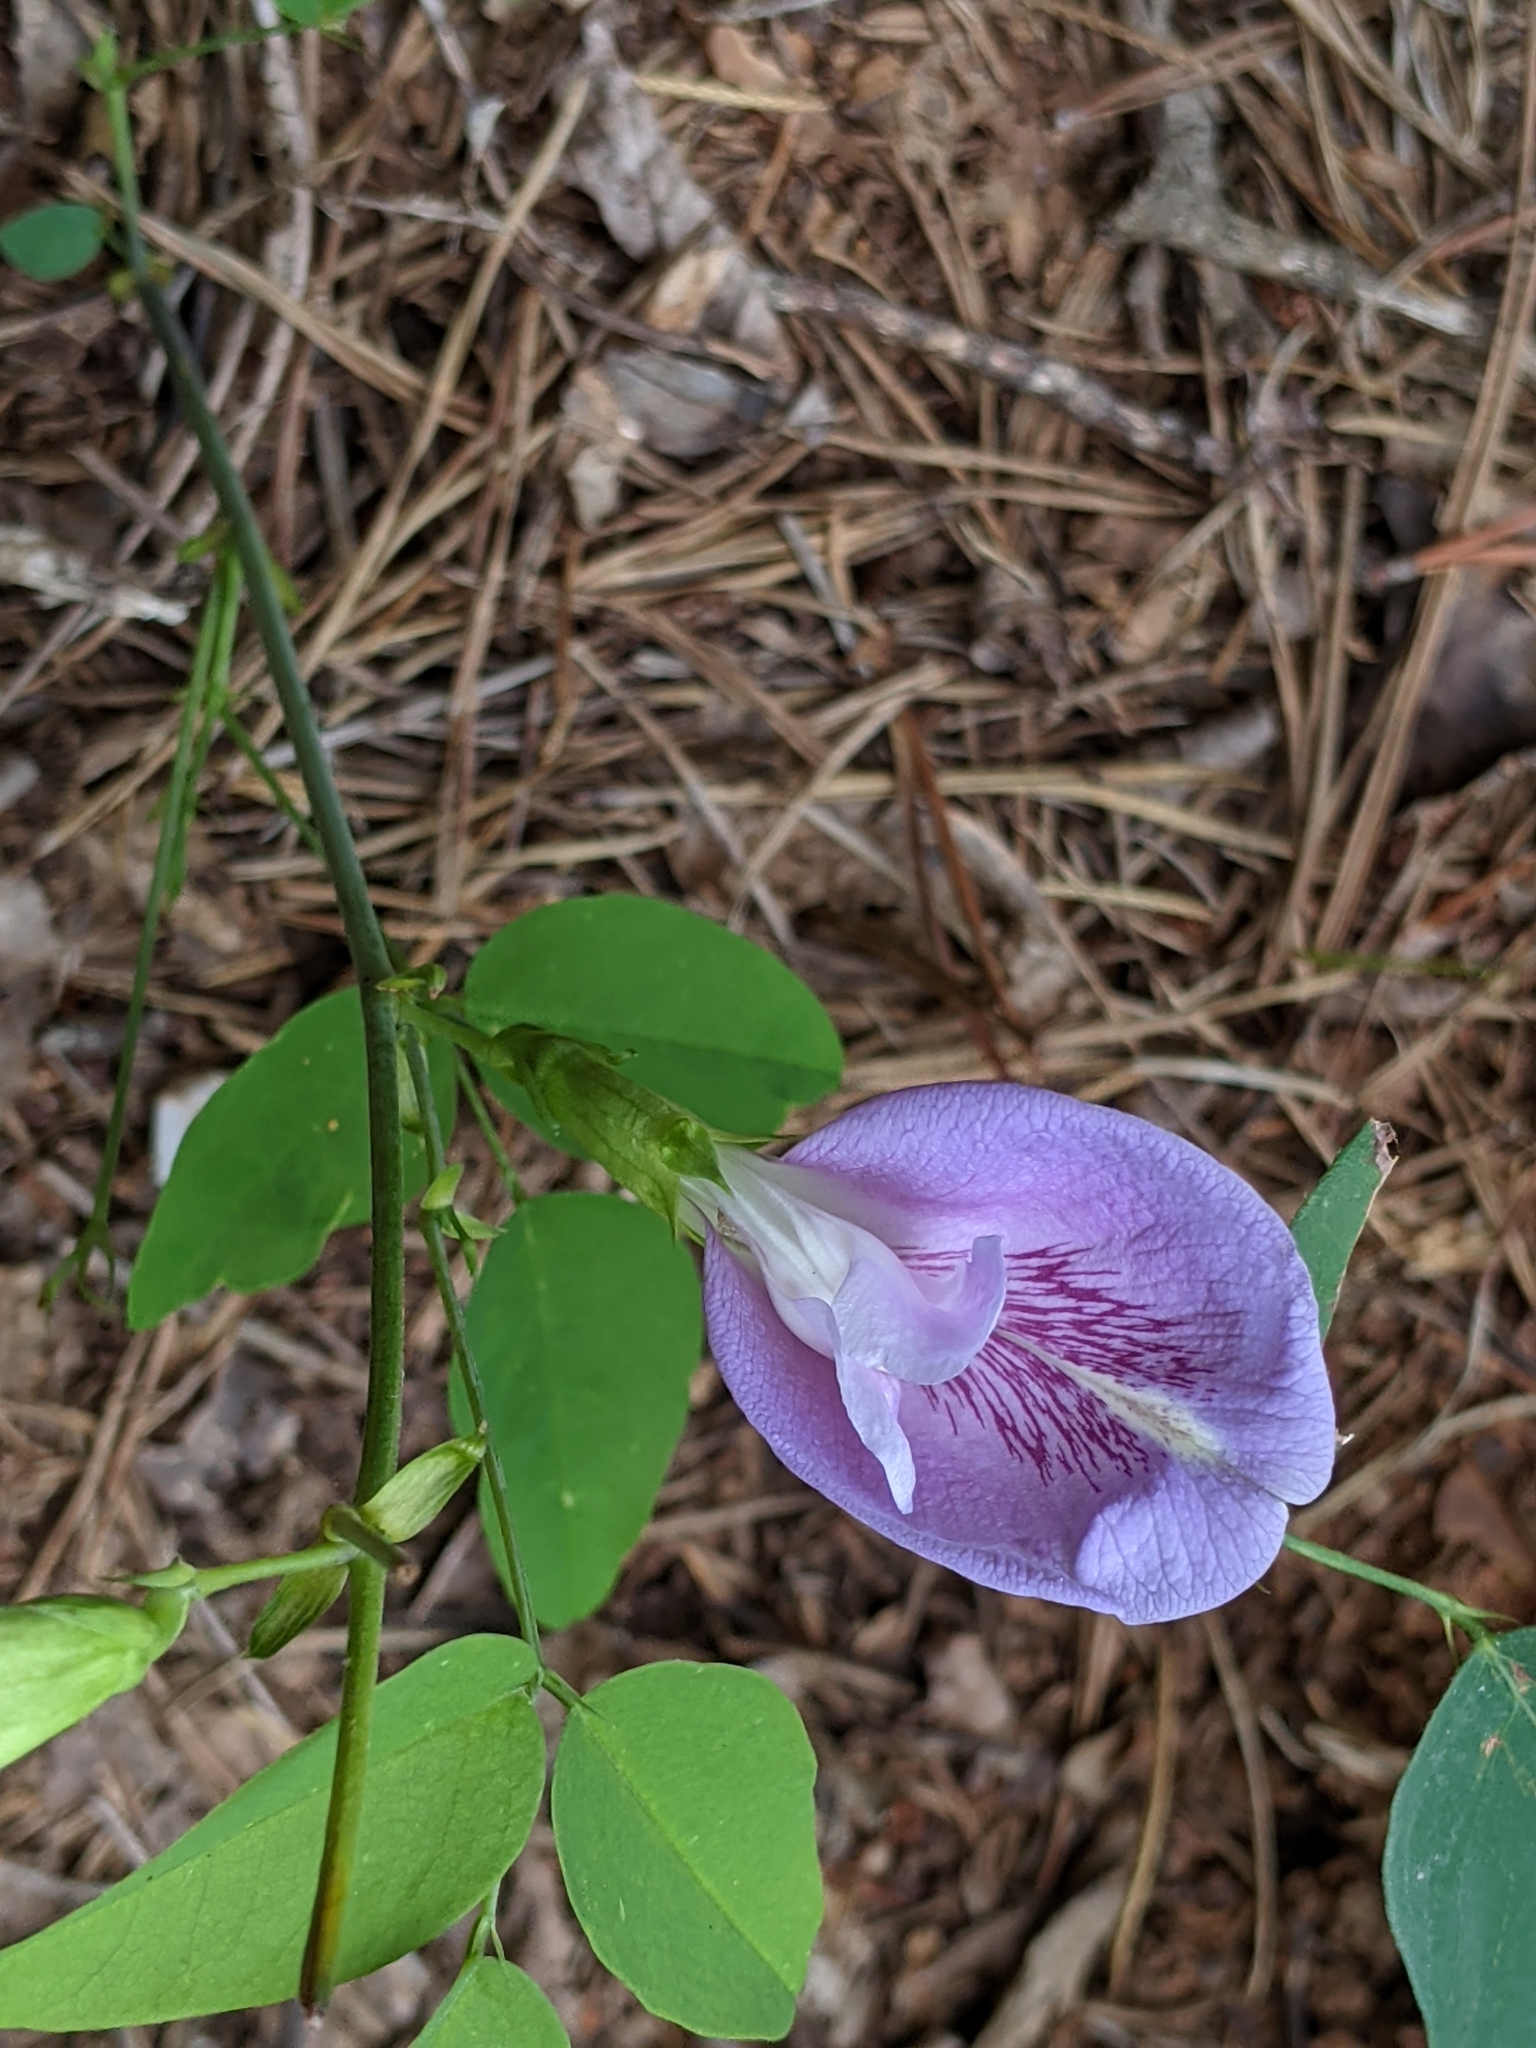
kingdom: Plantae
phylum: Tracheophyta
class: Magnoliopsida
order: Fabales
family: Fabaceae
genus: Clitoria
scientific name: Clitoria mariana
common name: Butterfly-pea
